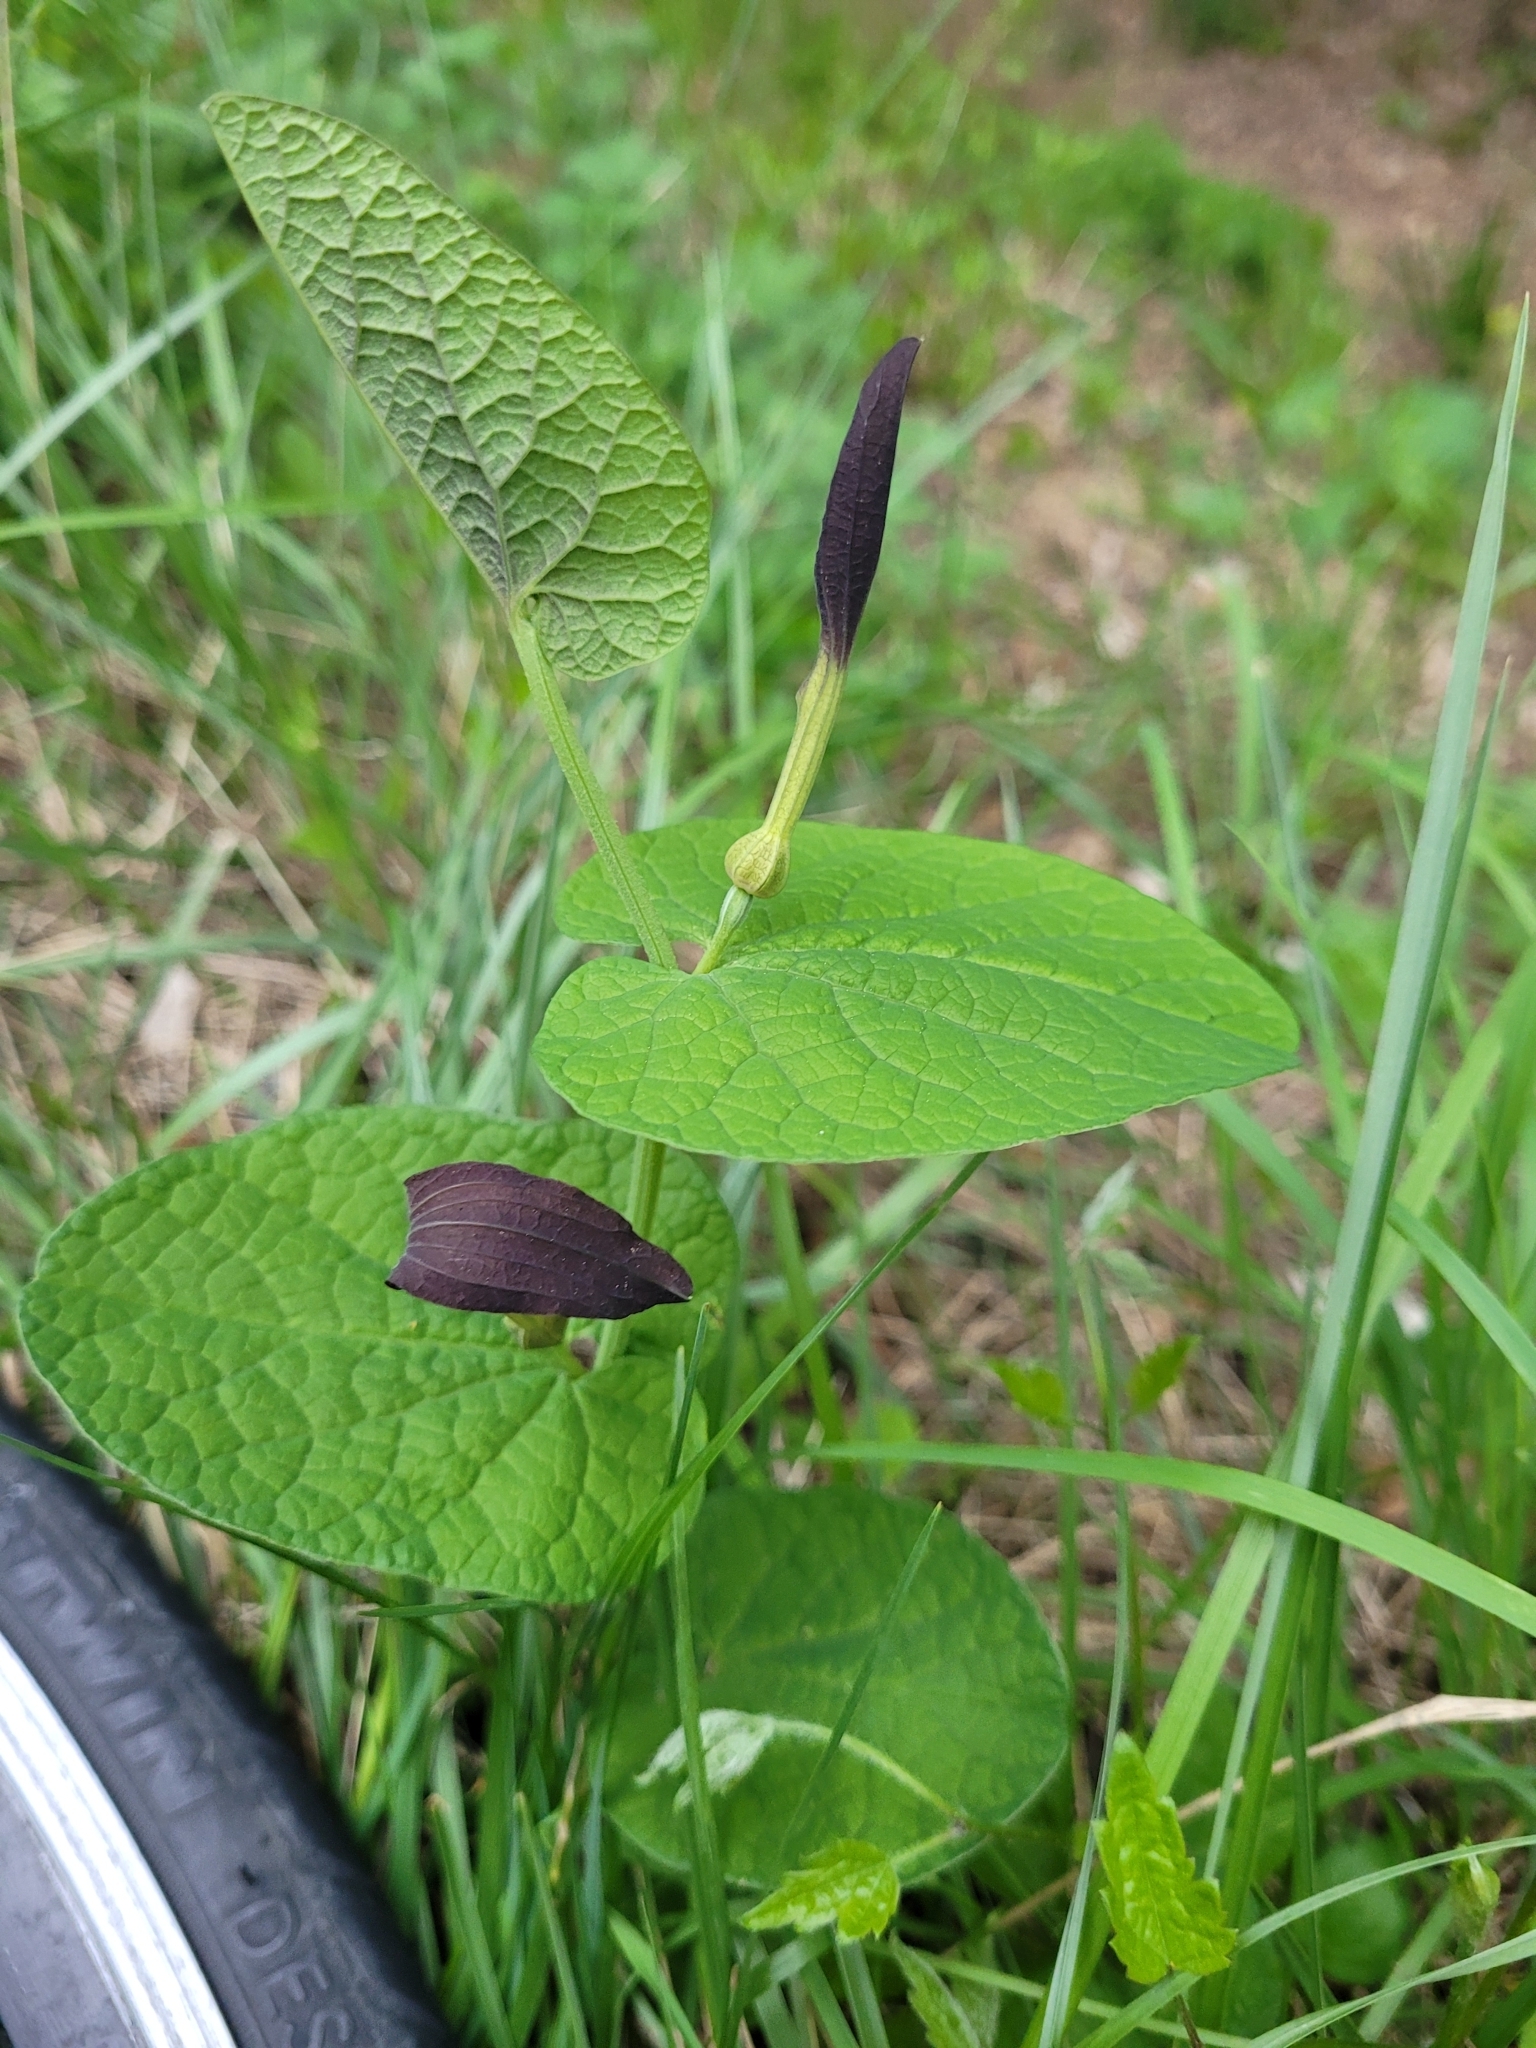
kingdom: Plantae
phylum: Tracheophyta
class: Magnoliopsida
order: Piperales
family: Aristolochiaceae
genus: Aristolochia
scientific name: Aristolochia rotunda
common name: Smearwort
